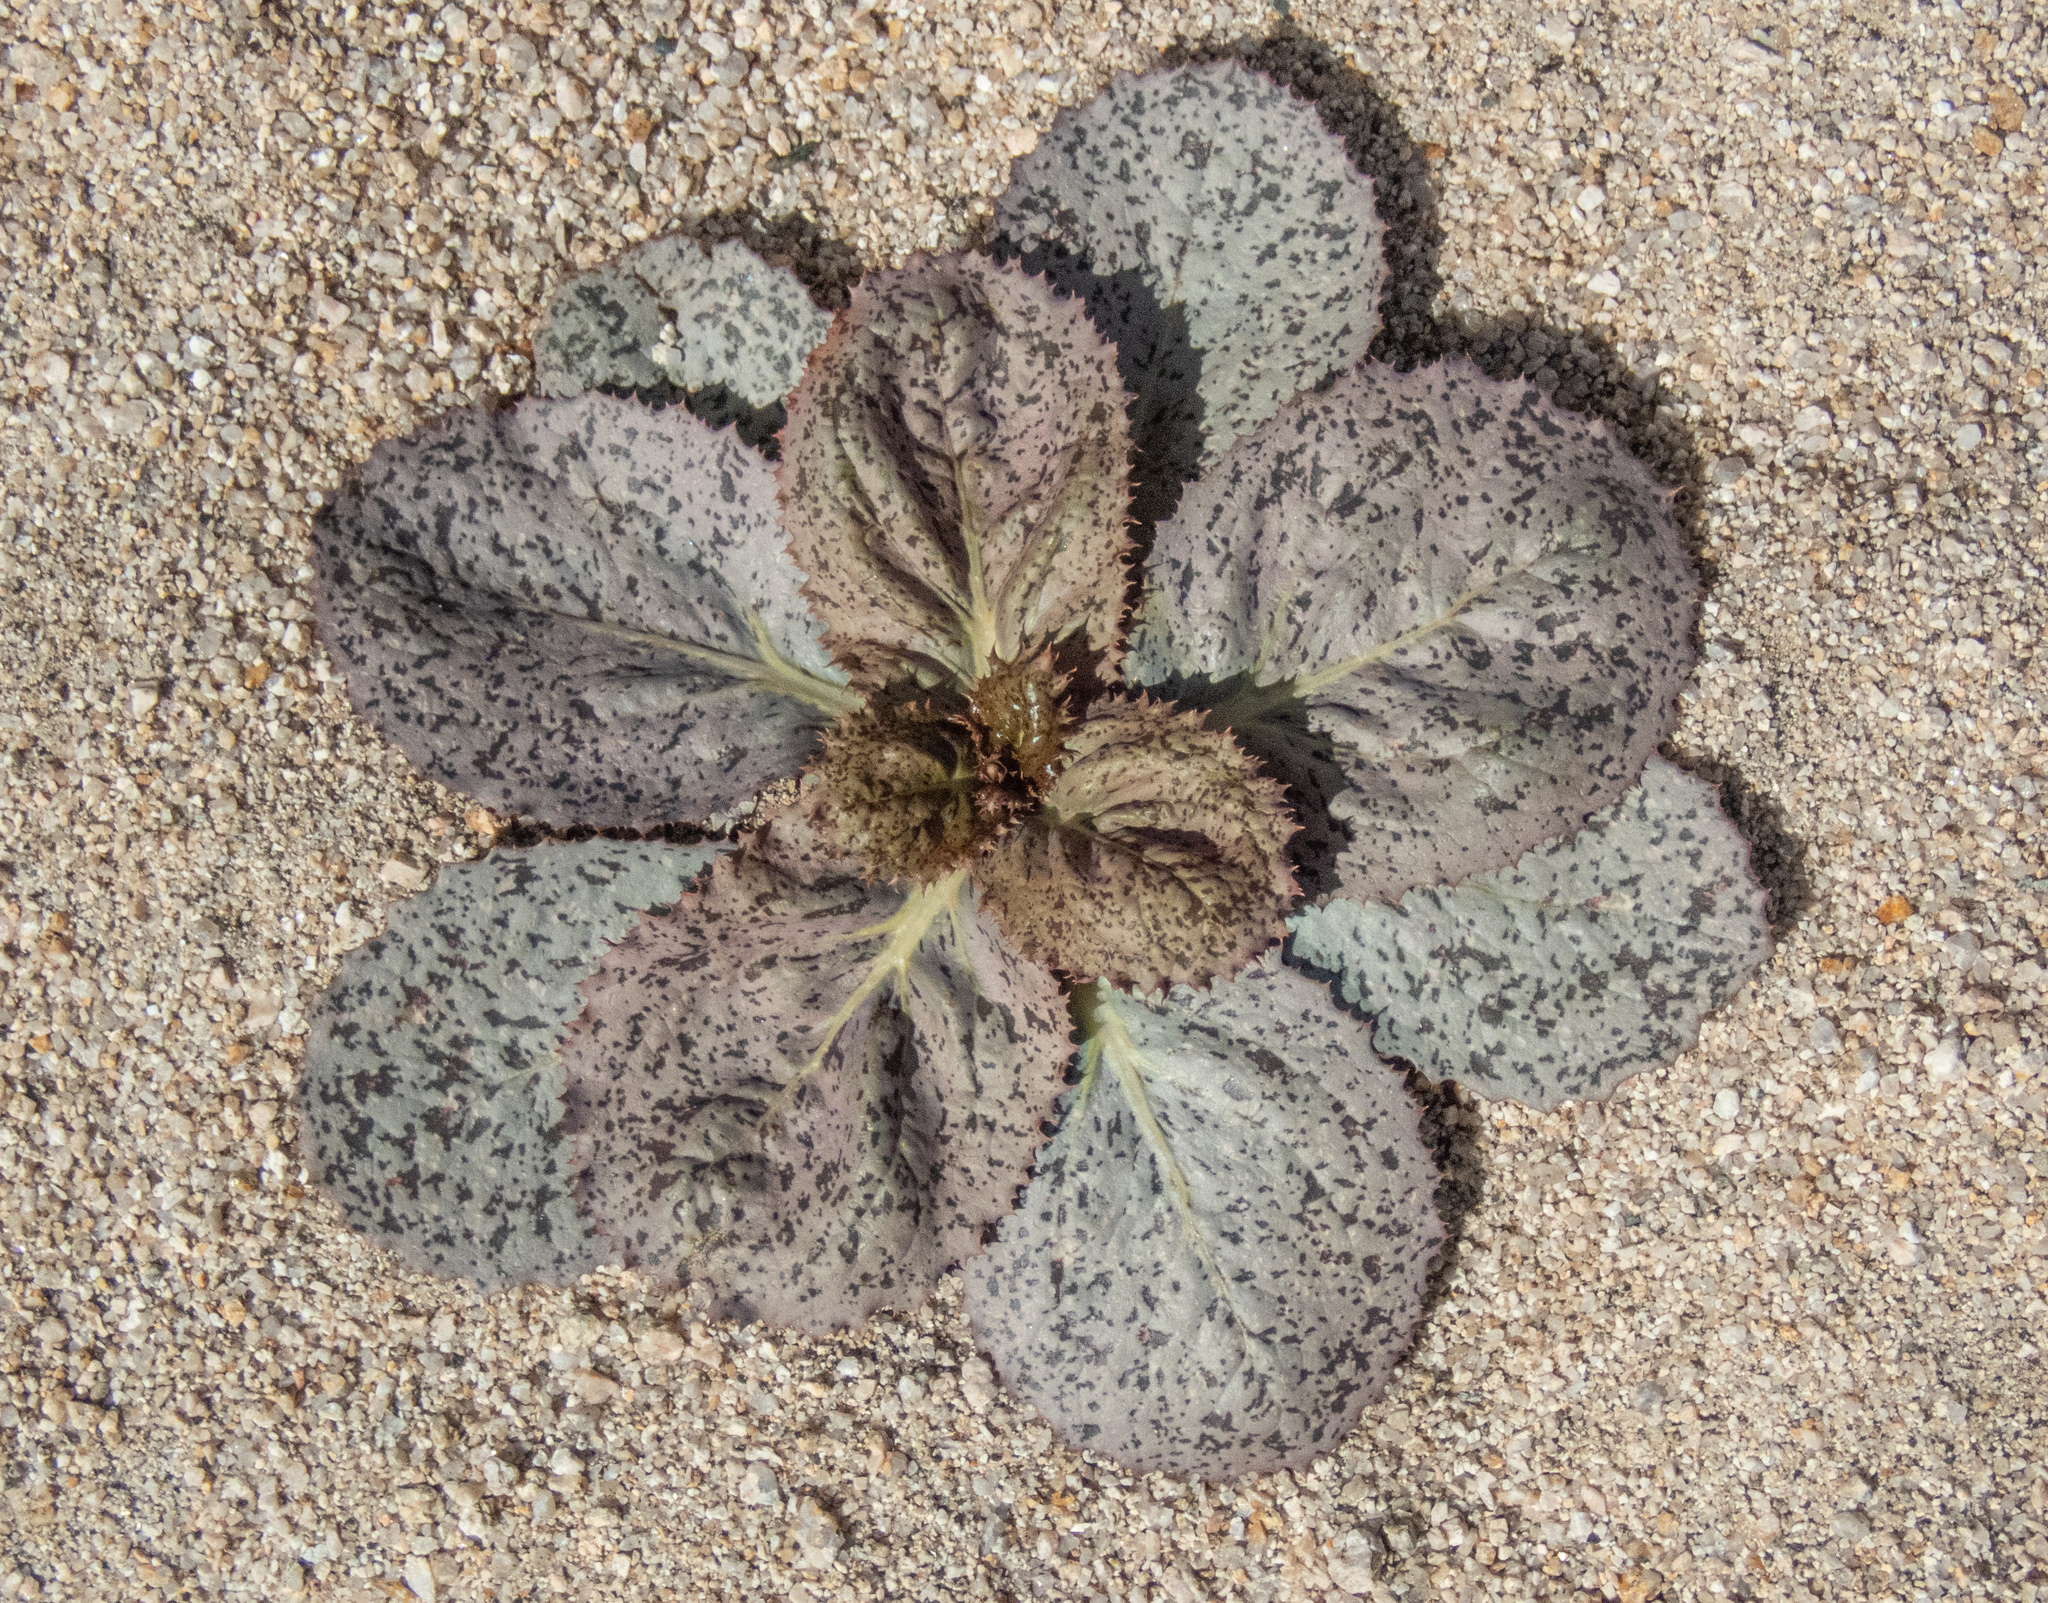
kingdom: Plantae
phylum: Tracheophyta
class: Magnoliopsida
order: Asterales
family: Asteraceae
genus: Atrichoseris
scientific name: Atrichoseris platyphylla
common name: Tobaccoweed
